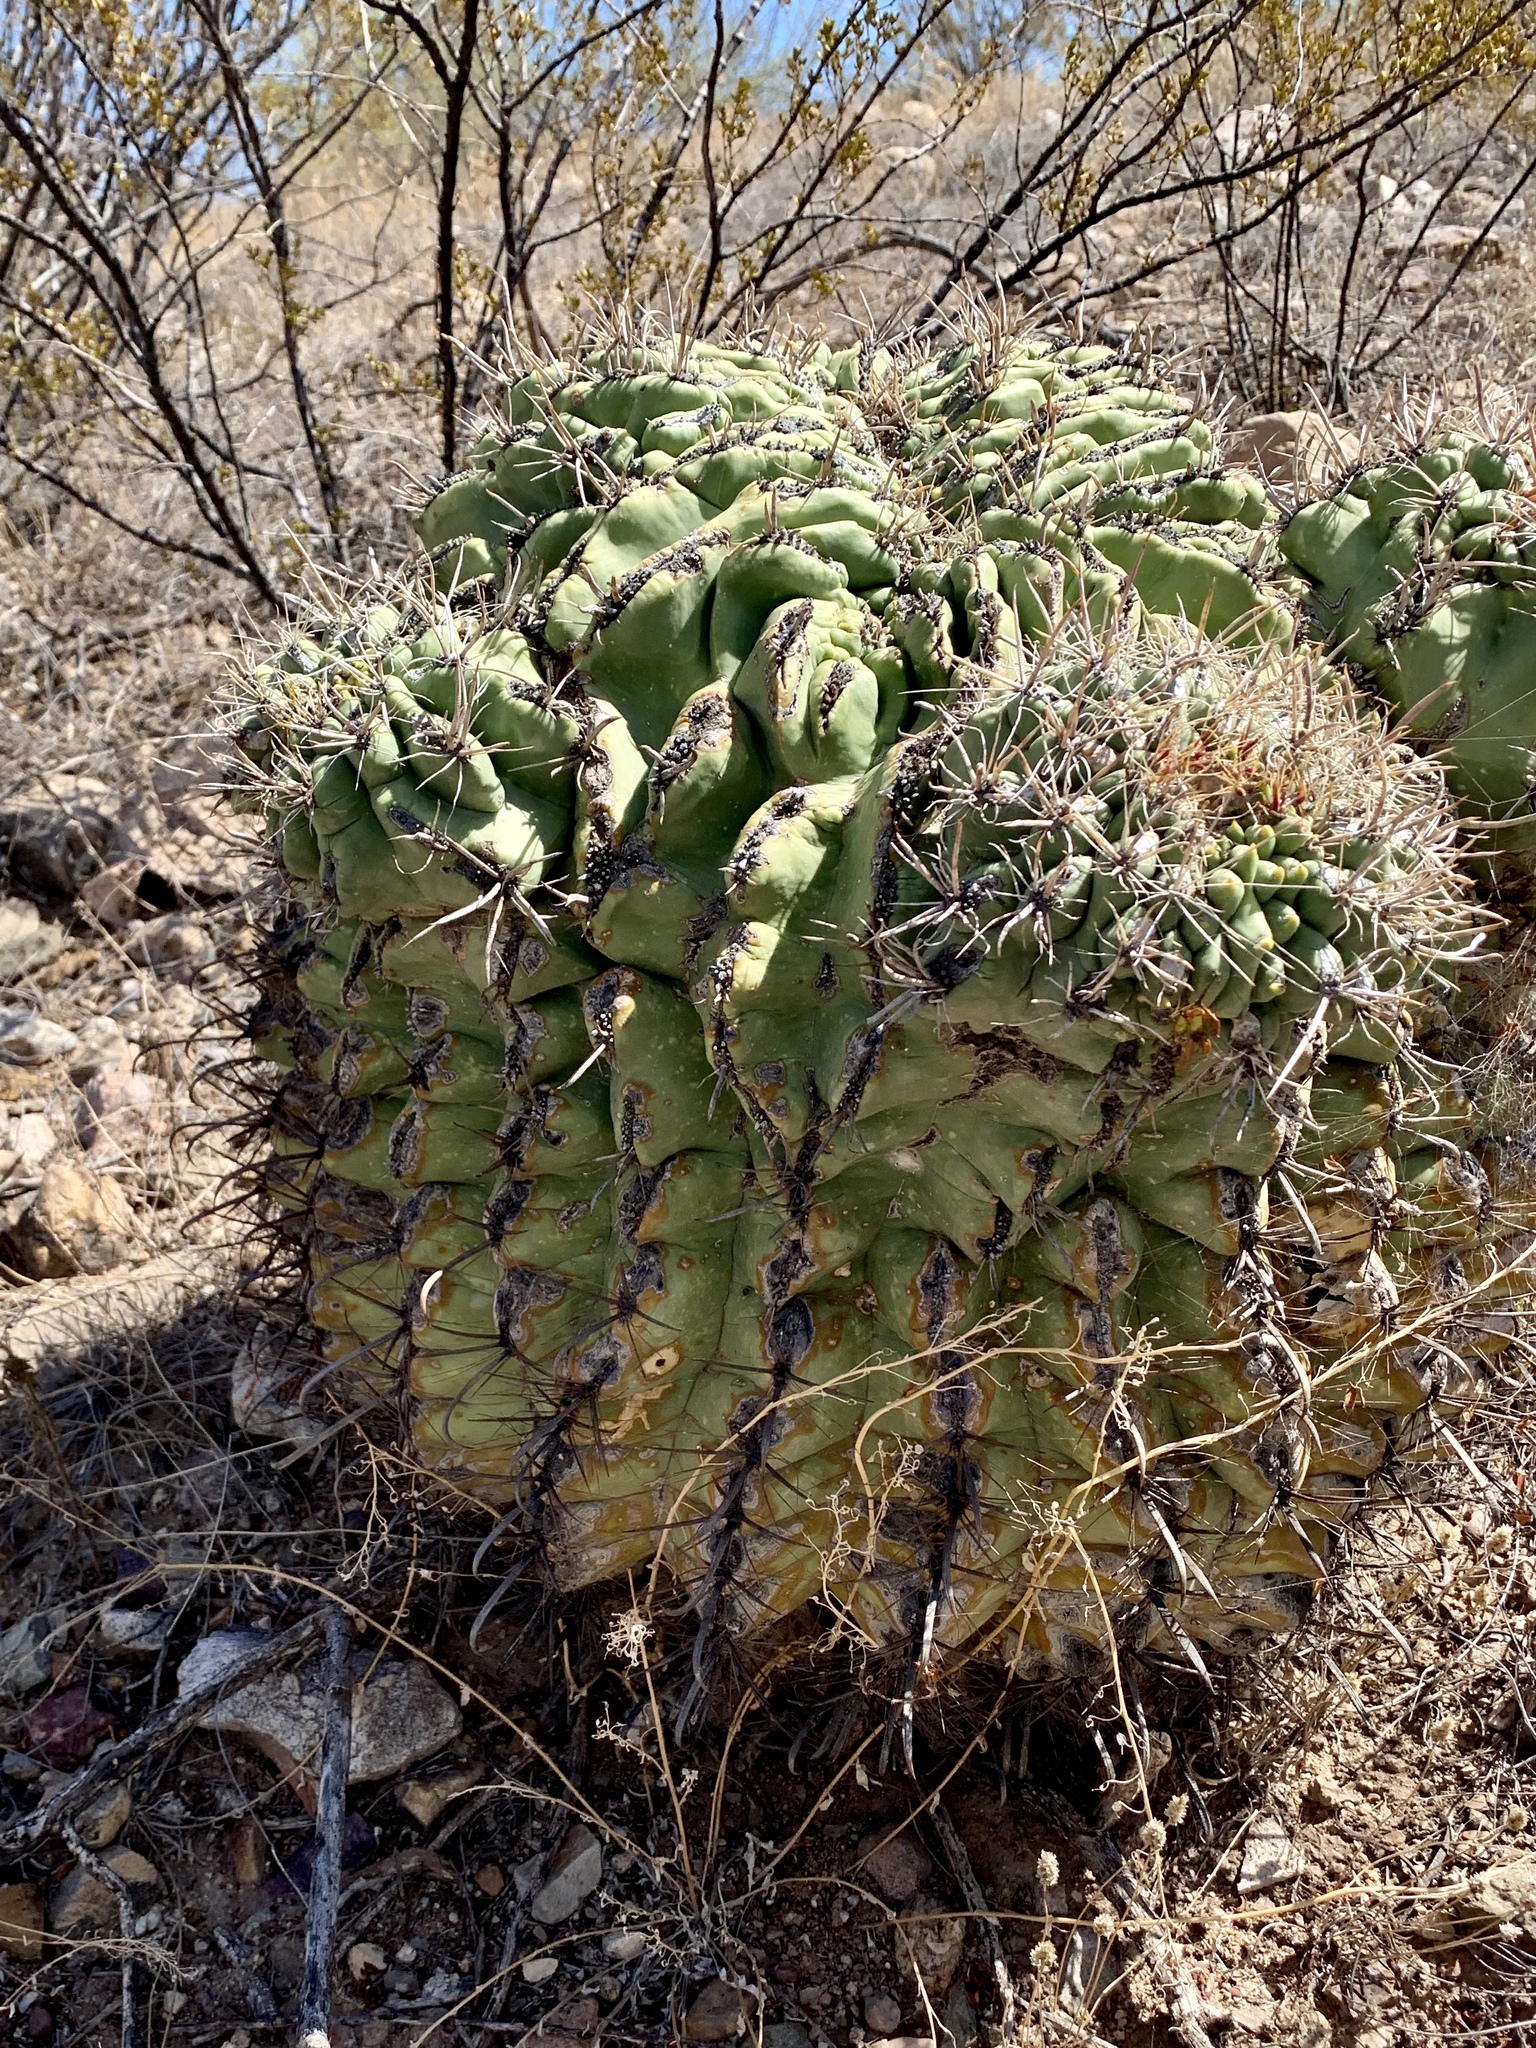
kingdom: Plantae
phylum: Tracheophyta
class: Magnoliopsida
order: Caryophyllales
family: Cactaceae
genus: Ferocactus
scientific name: Ferocactus wislizeni
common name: Candy barrel cactus
